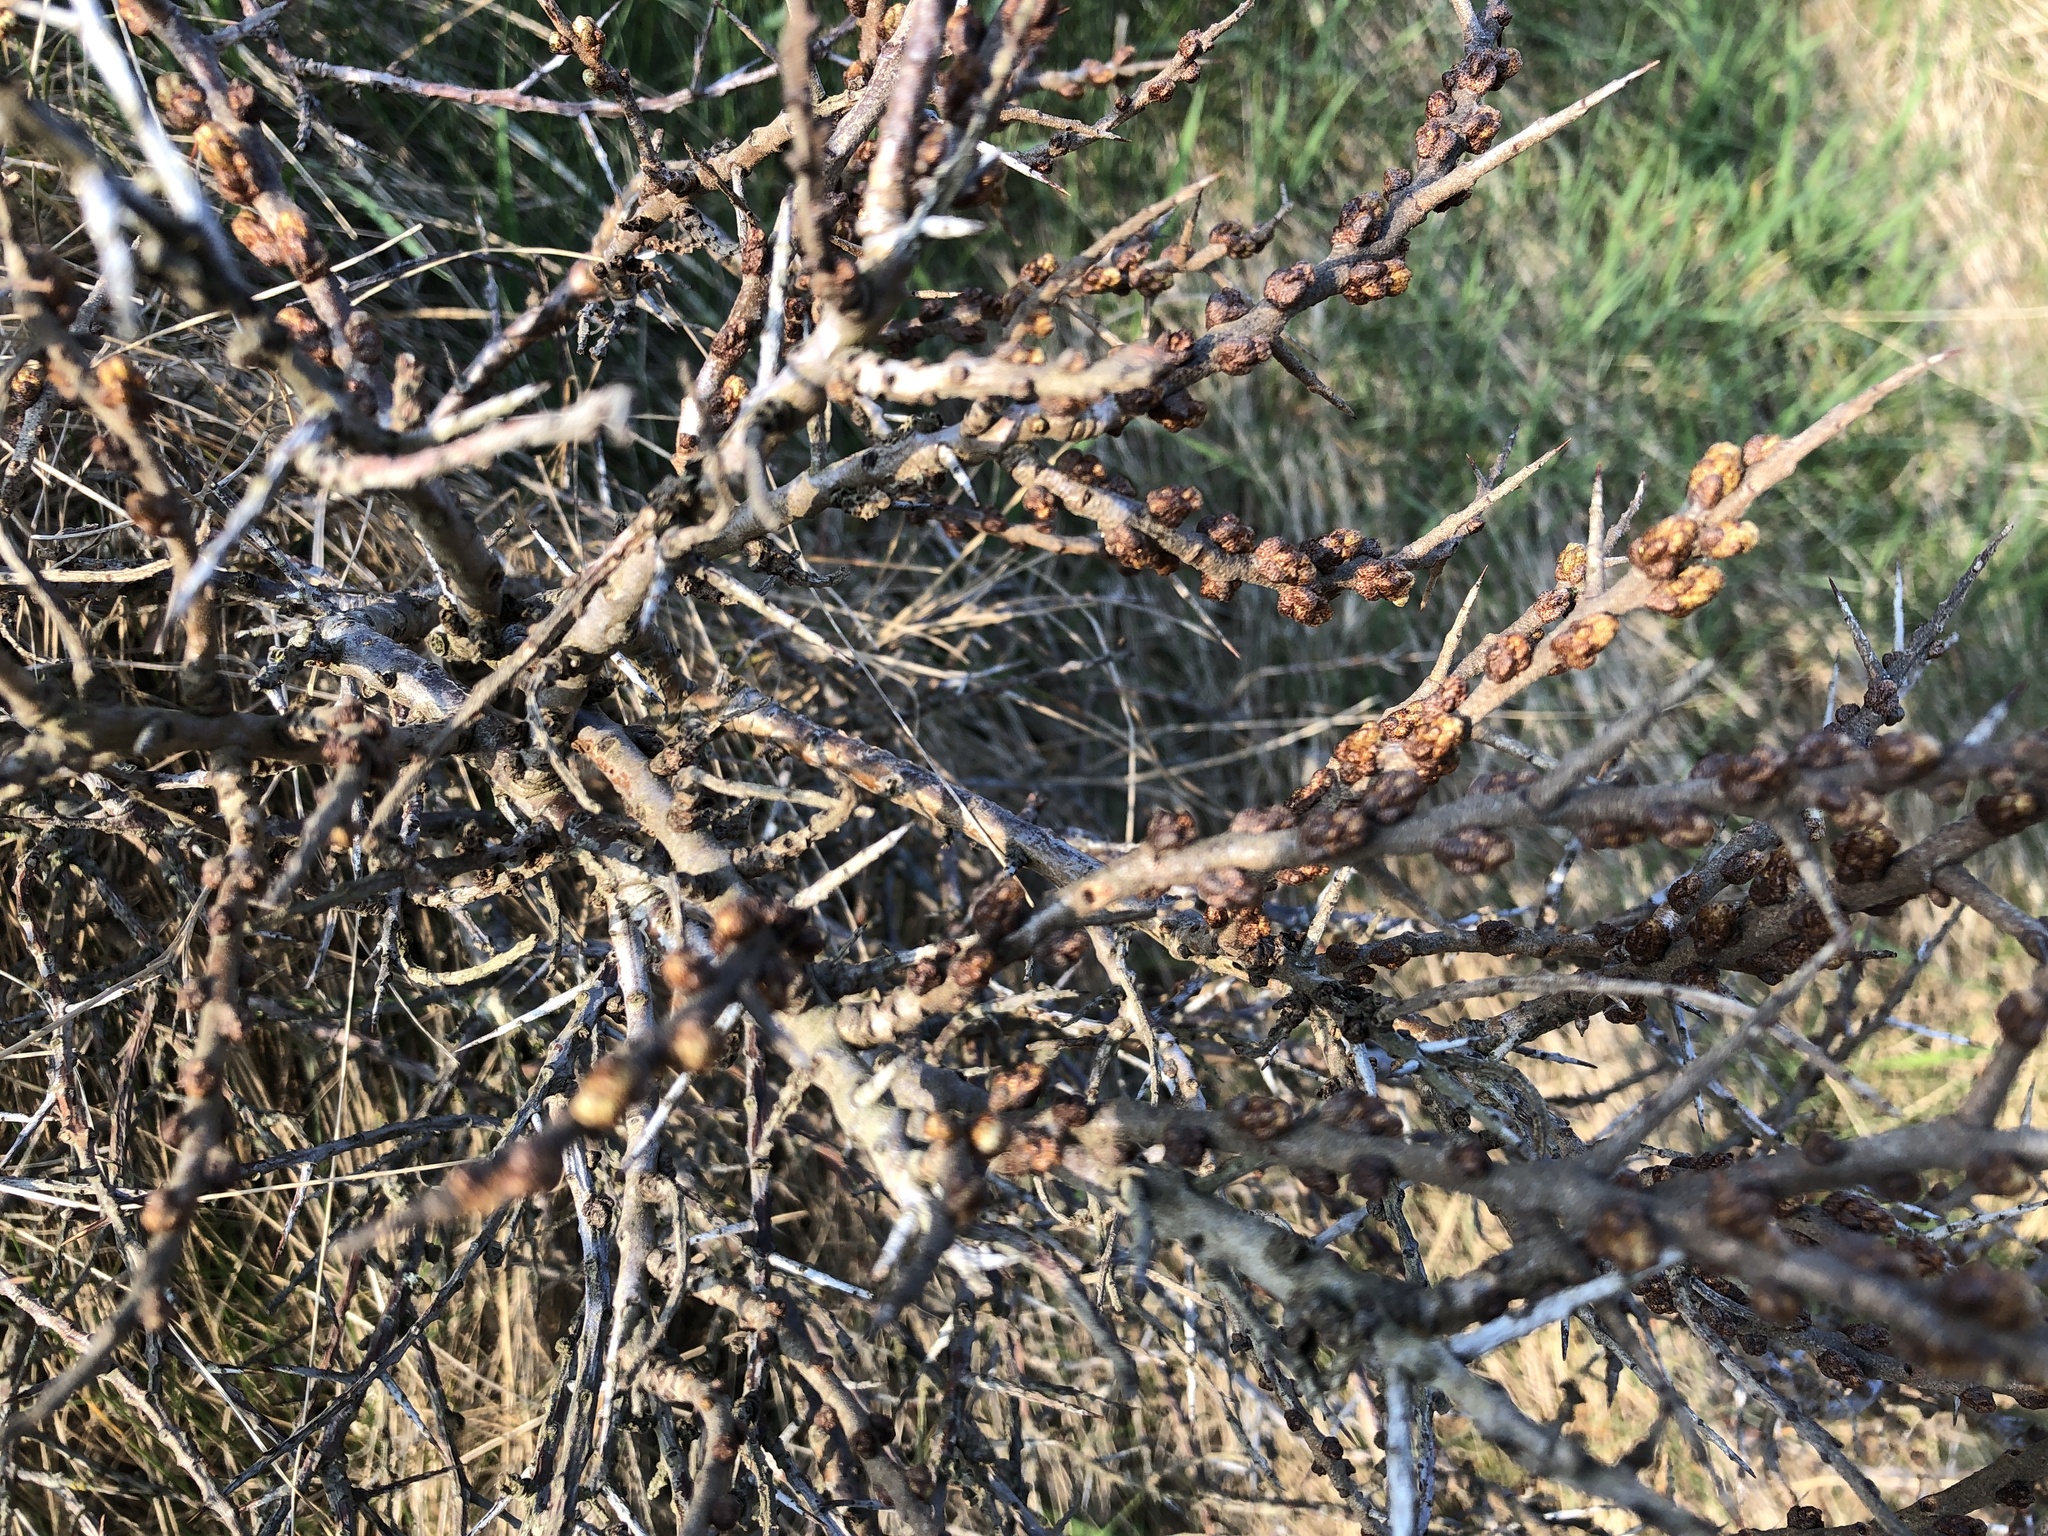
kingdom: Plantae
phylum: Tracheophyta
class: Magnoliopsida
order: Rosales
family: Elaeagnaceae
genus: Hippophae
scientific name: Hippophae rhamnoides
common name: Sea-buckthorn
